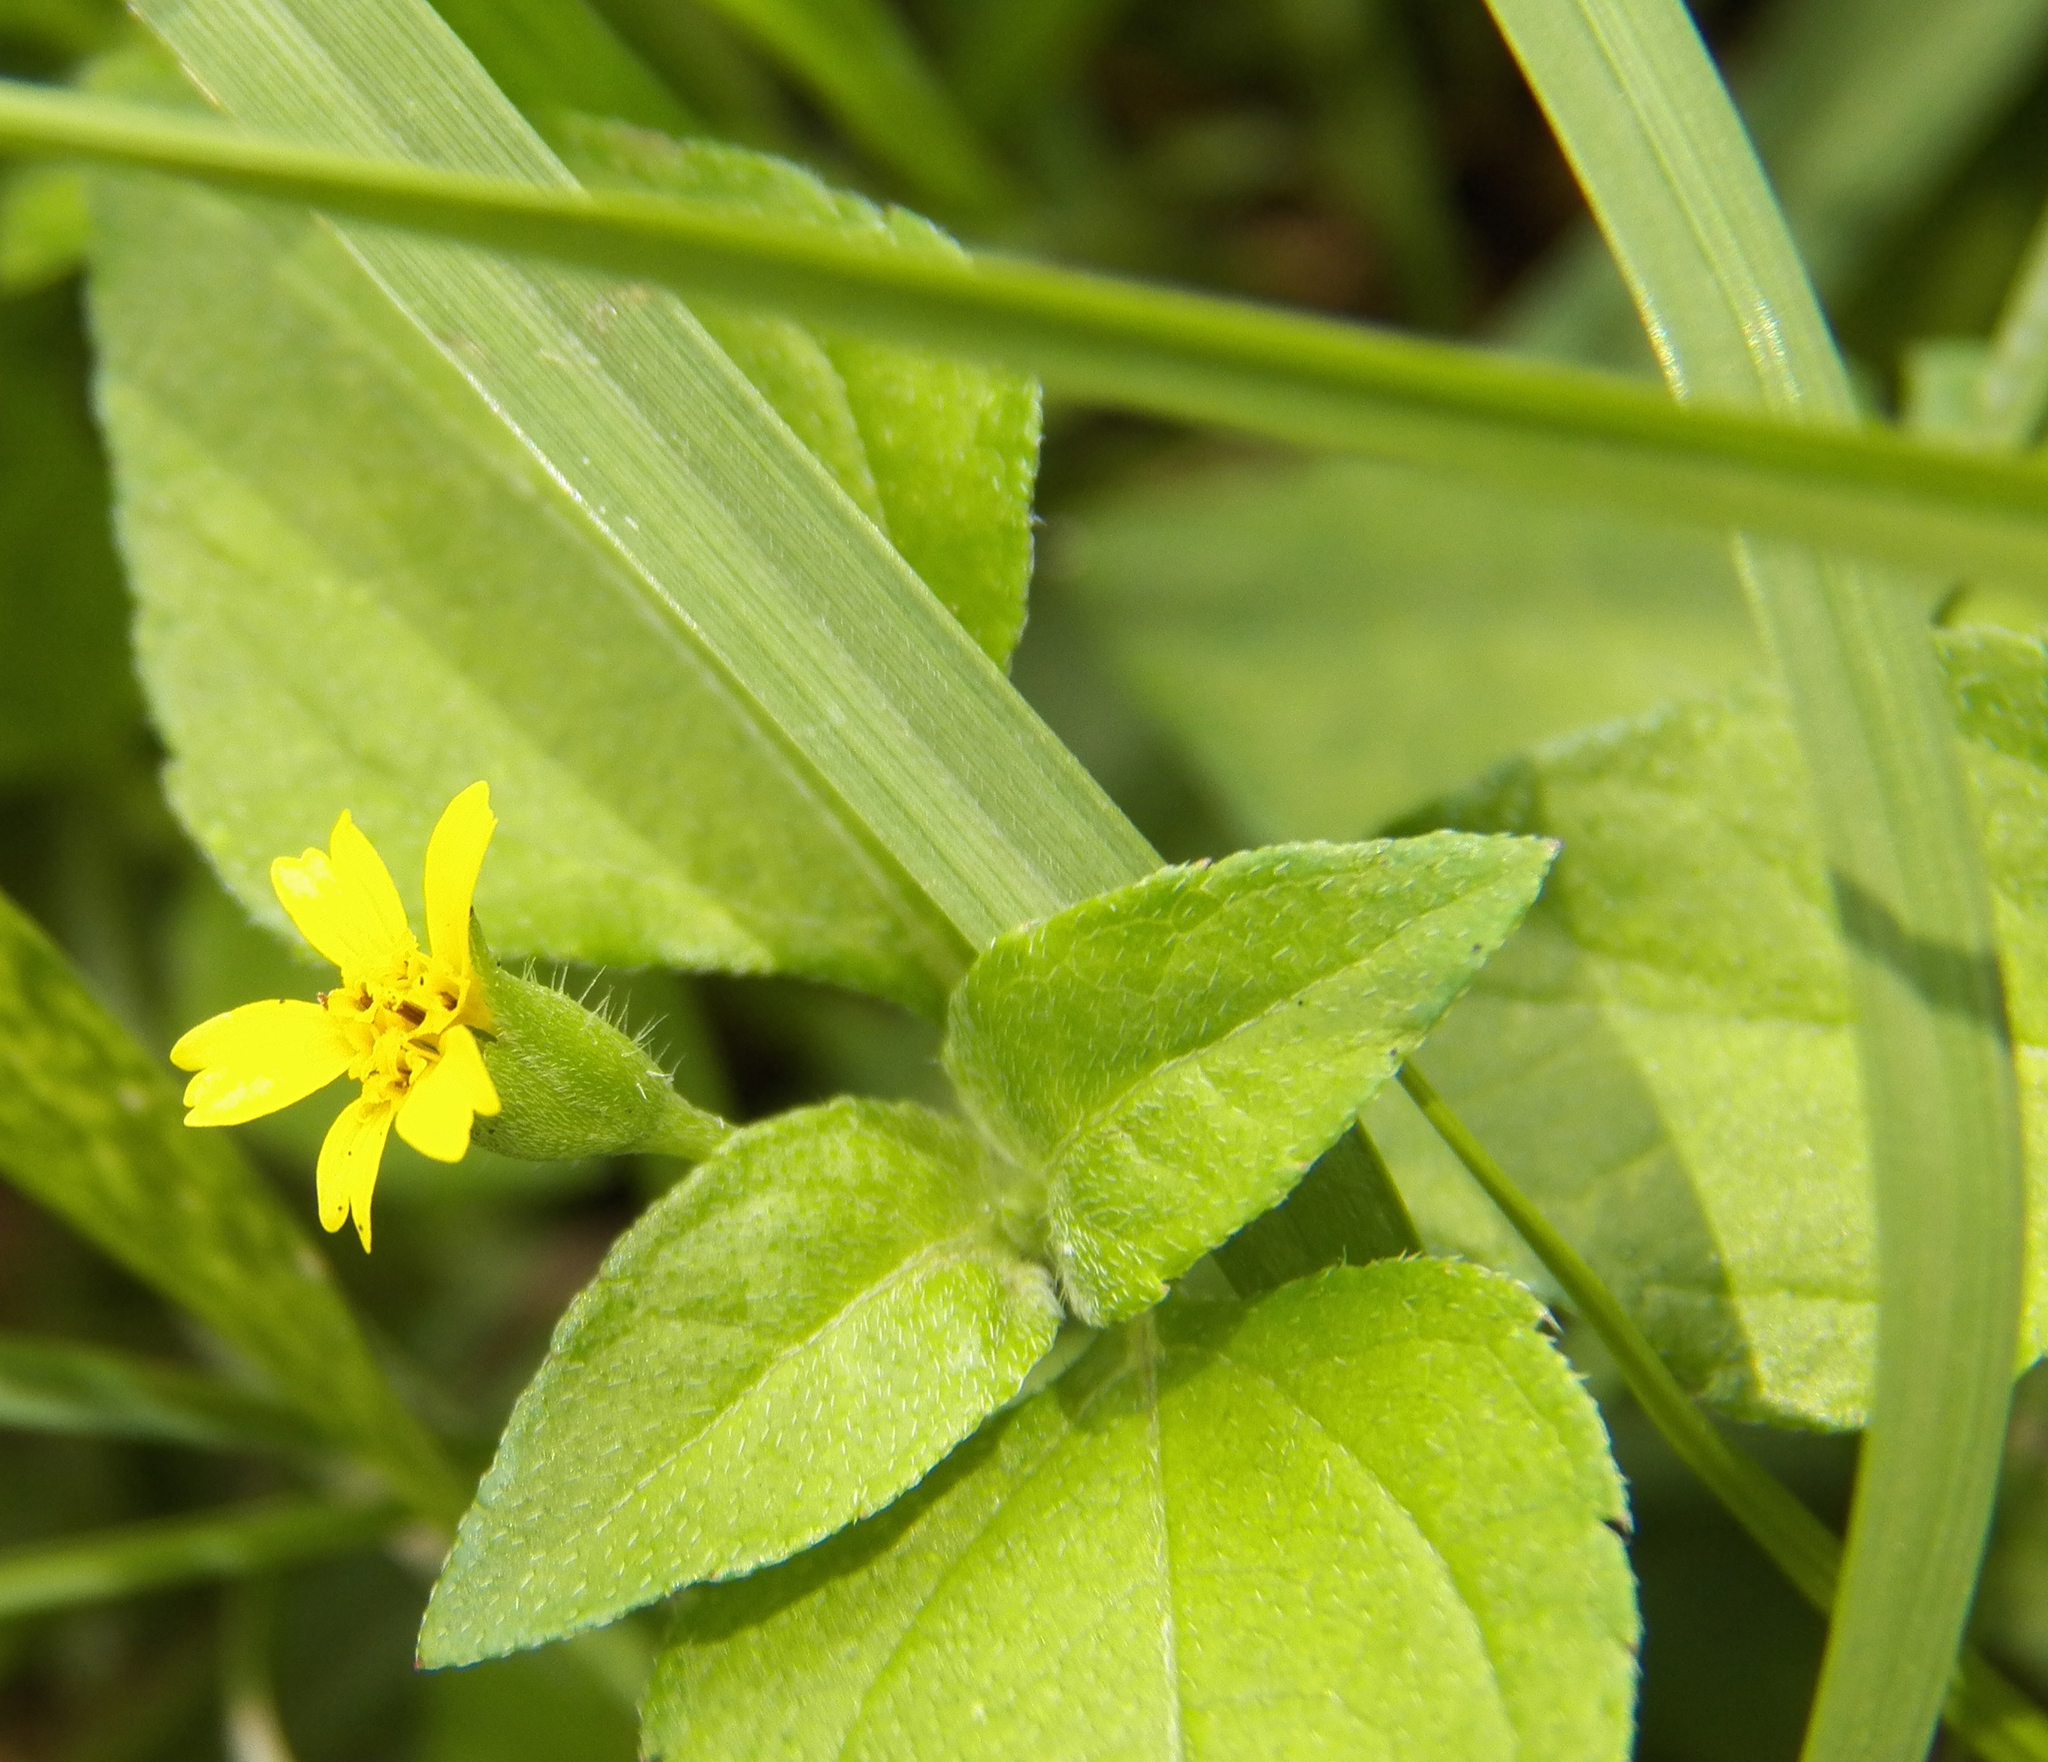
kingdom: Plantae
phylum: Tracheophyta
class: Magnoliopsida
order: Asterales
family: Asteraceae
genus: Calyptocarpus
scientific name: Calyptocarpus vialis
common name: Straggler daisy
